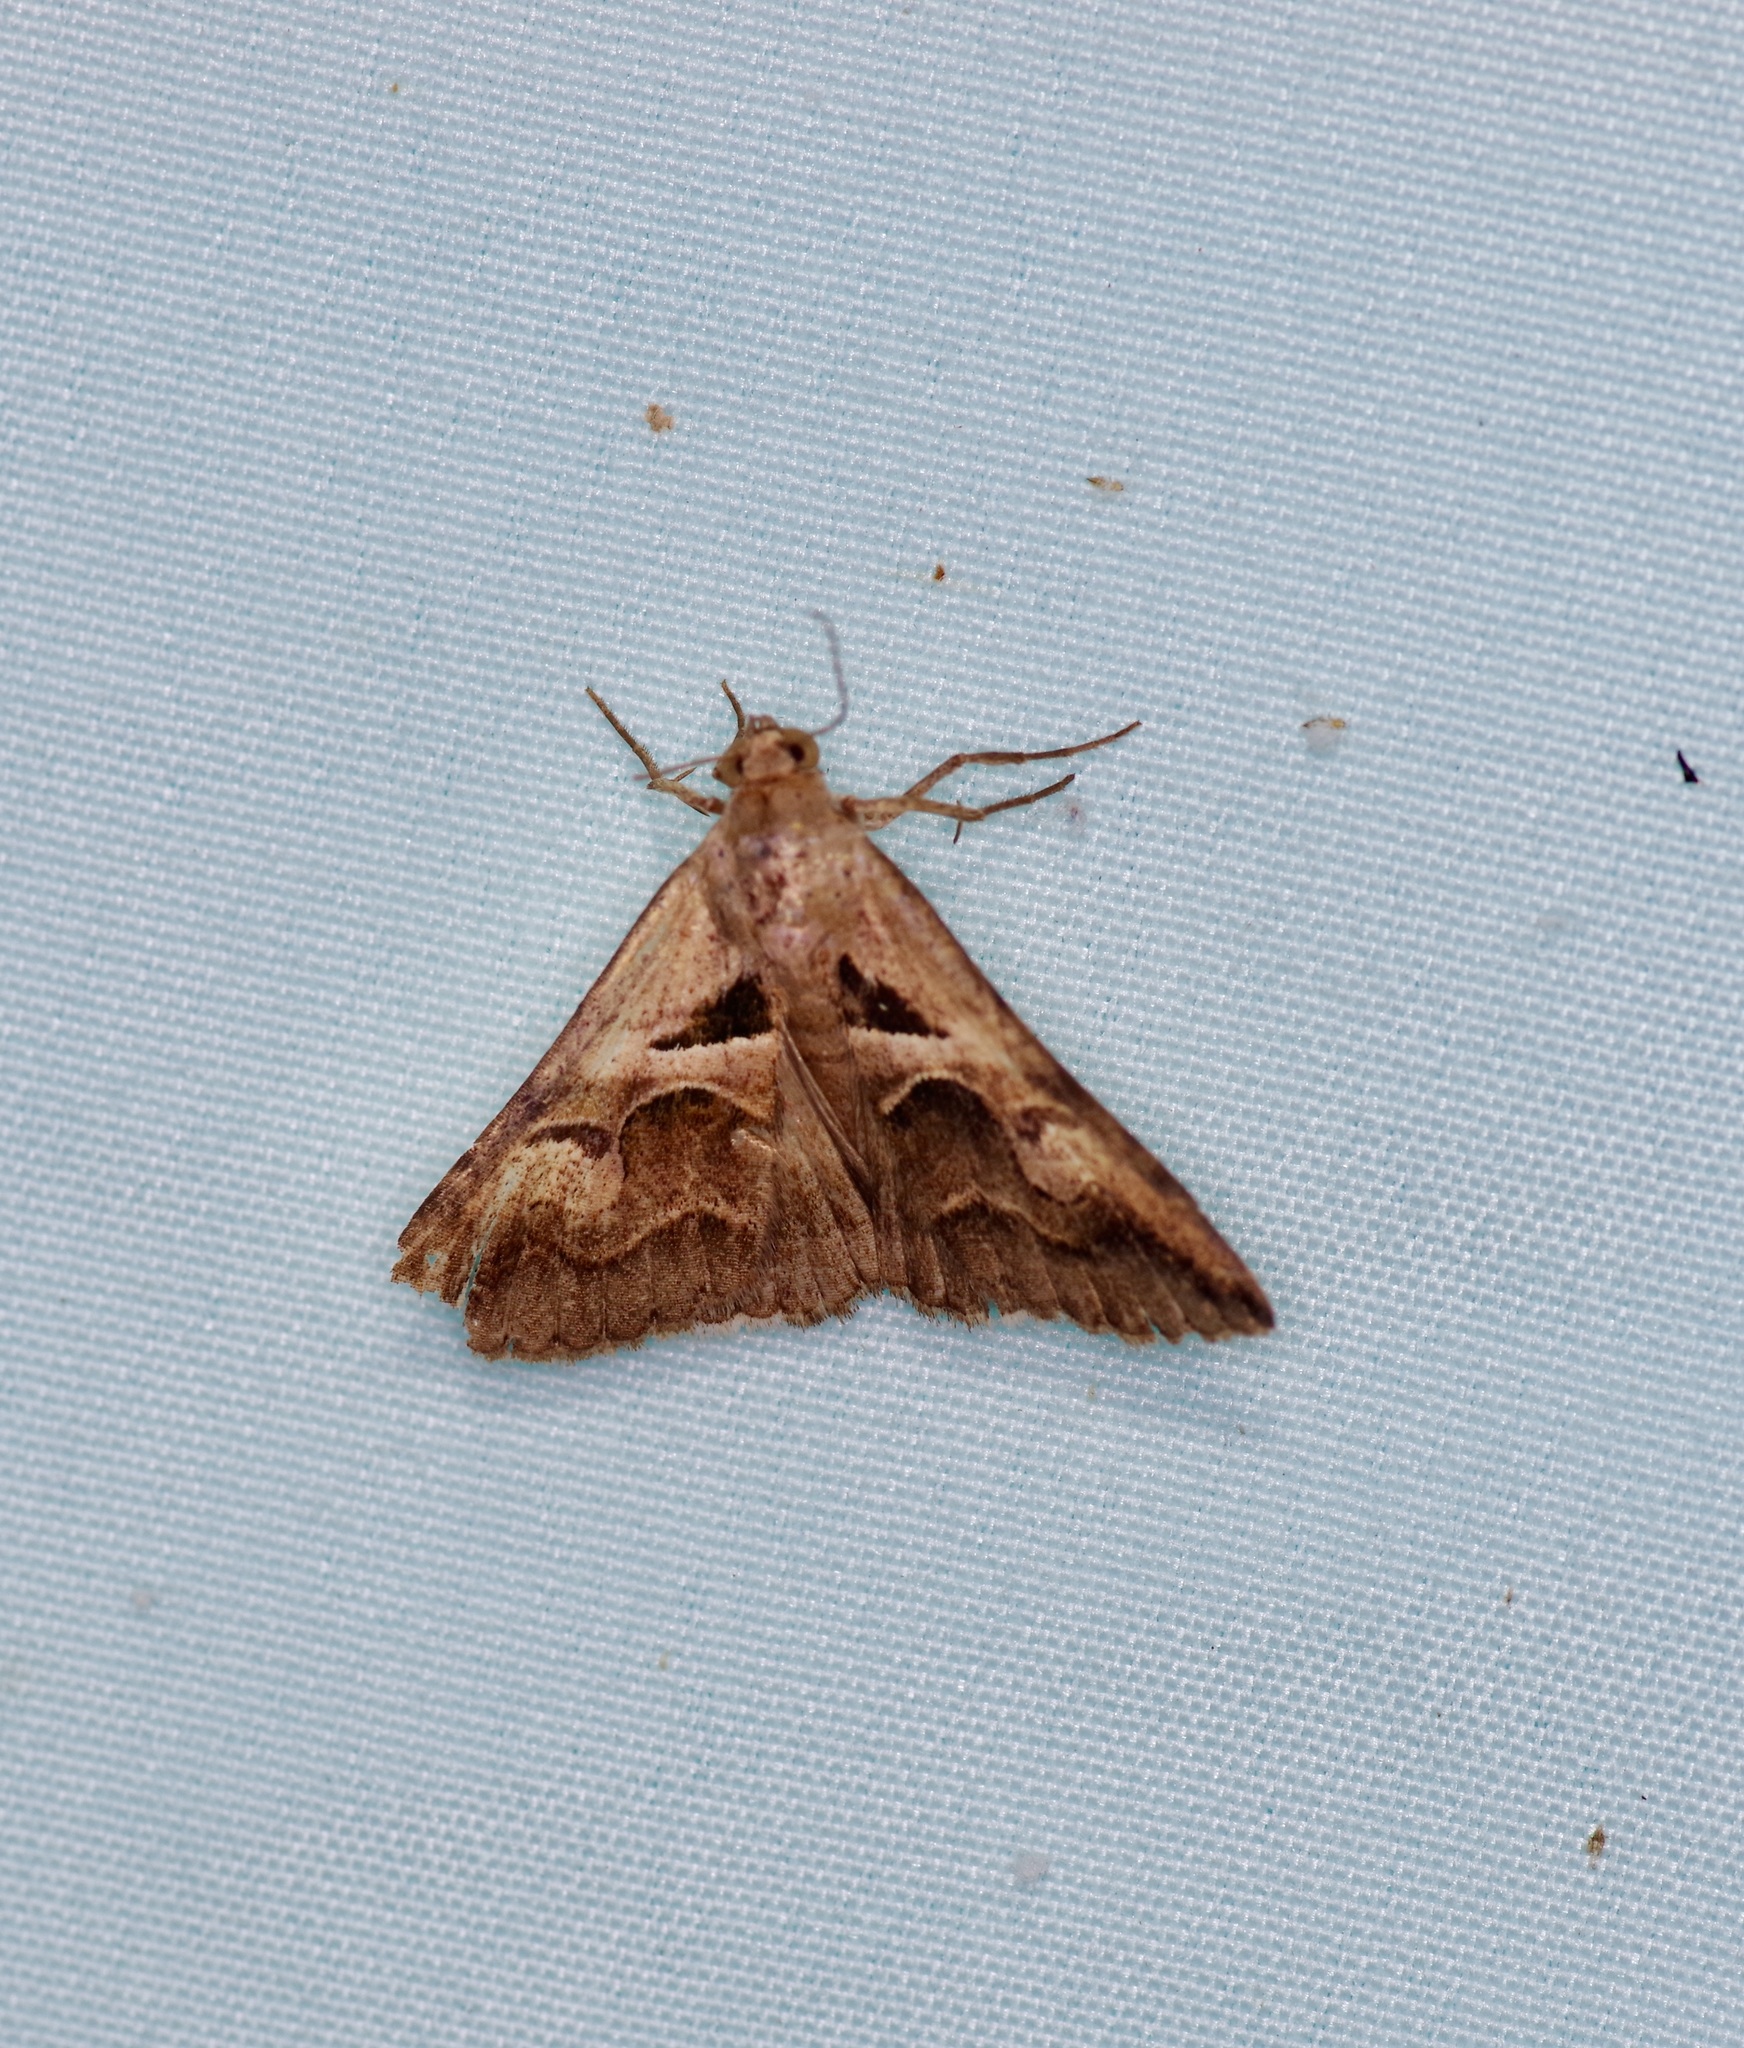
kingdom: Animalia
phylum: Arthropoda
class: Insecta
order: Lepidoptera
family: Erebidae
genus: Melipotis
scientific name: Melipotis cellaris
